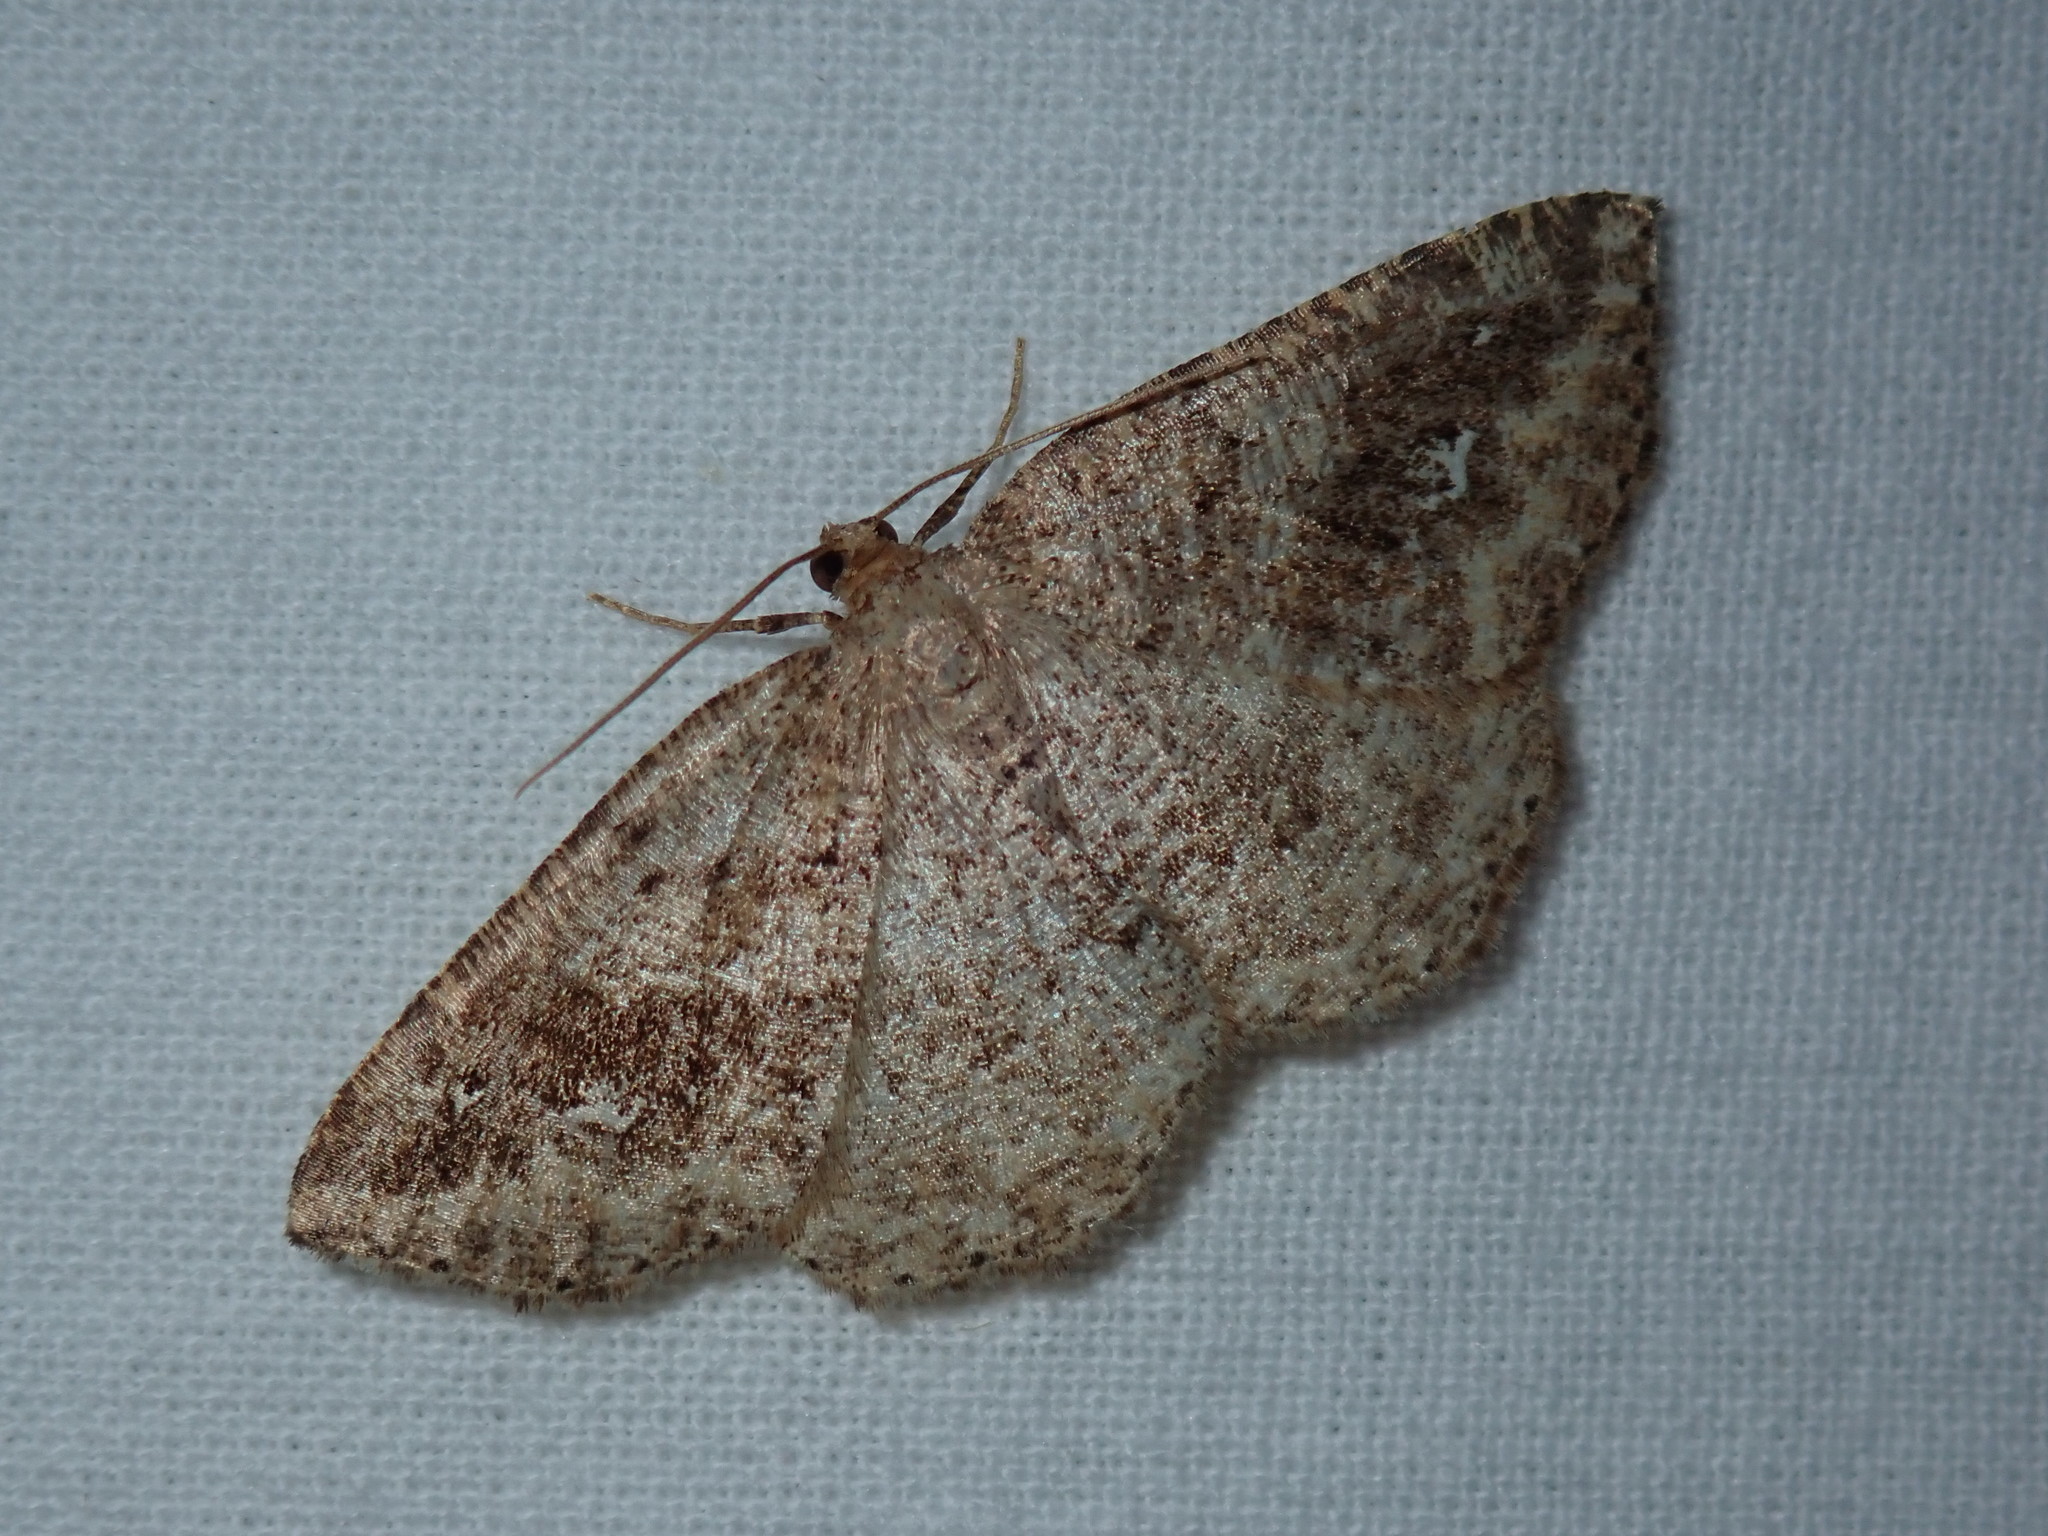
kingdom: Animalia
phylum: Arthropoda
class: Insecta
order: Lepidoptera
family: Geometridae
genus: Homochlodes
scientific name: Homochlodes fritillaria
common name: Pale homochlodes
